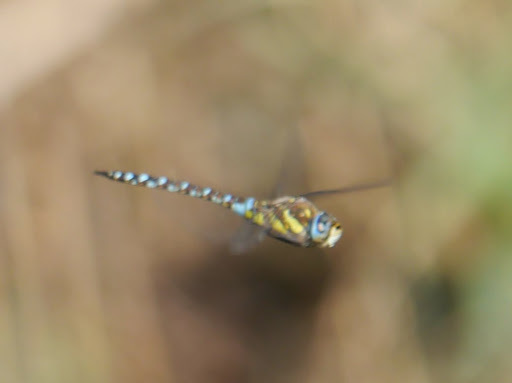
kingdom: Animalia
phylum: Arthropoda
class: Insecta
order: Odonata
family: Aeshnidae
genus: Aeshna
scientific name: Aeshna mixta
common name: Migrant hawker
